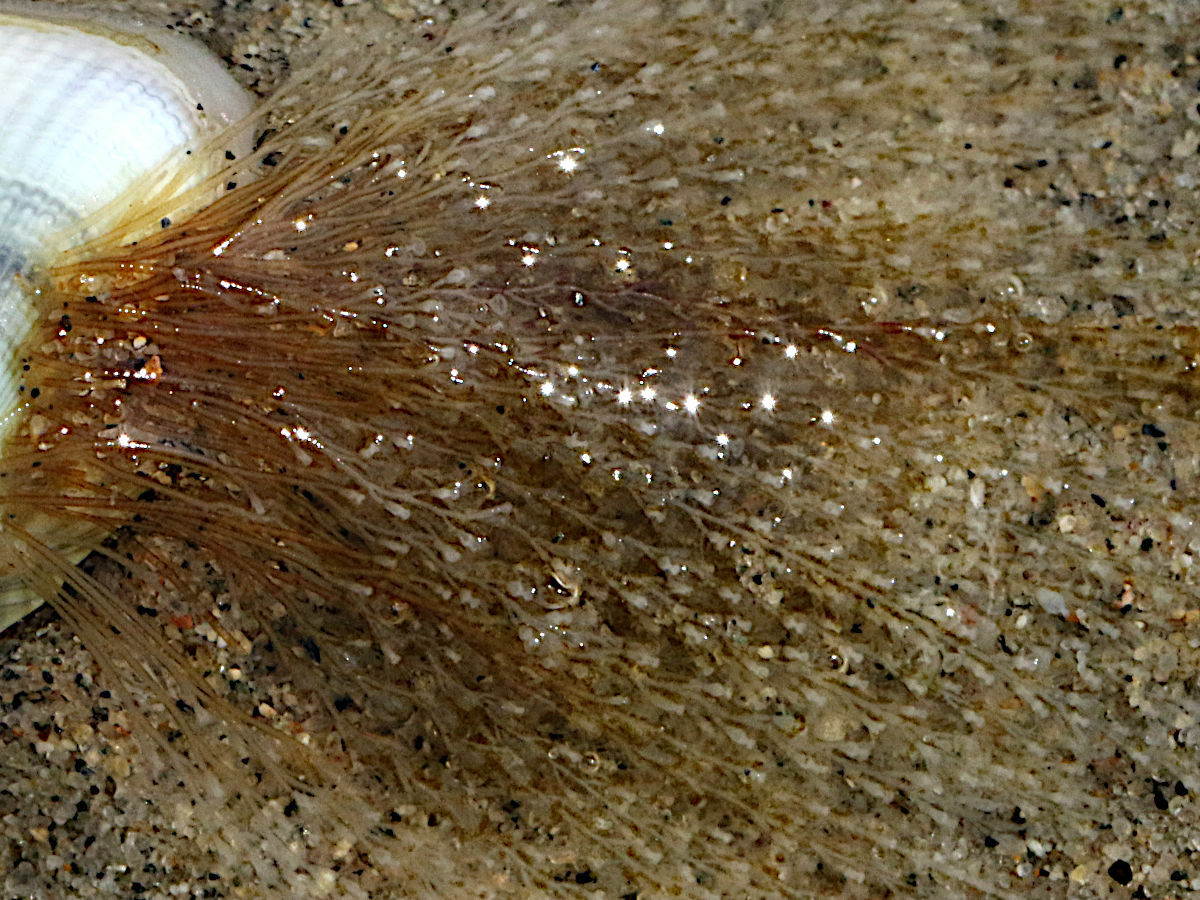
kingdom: Animalia
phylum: Cnidaria
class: Hydrozoa
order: Leptothecata
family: Lovenellidae
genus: Eucheilota
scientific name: Eucheilota bakeri
